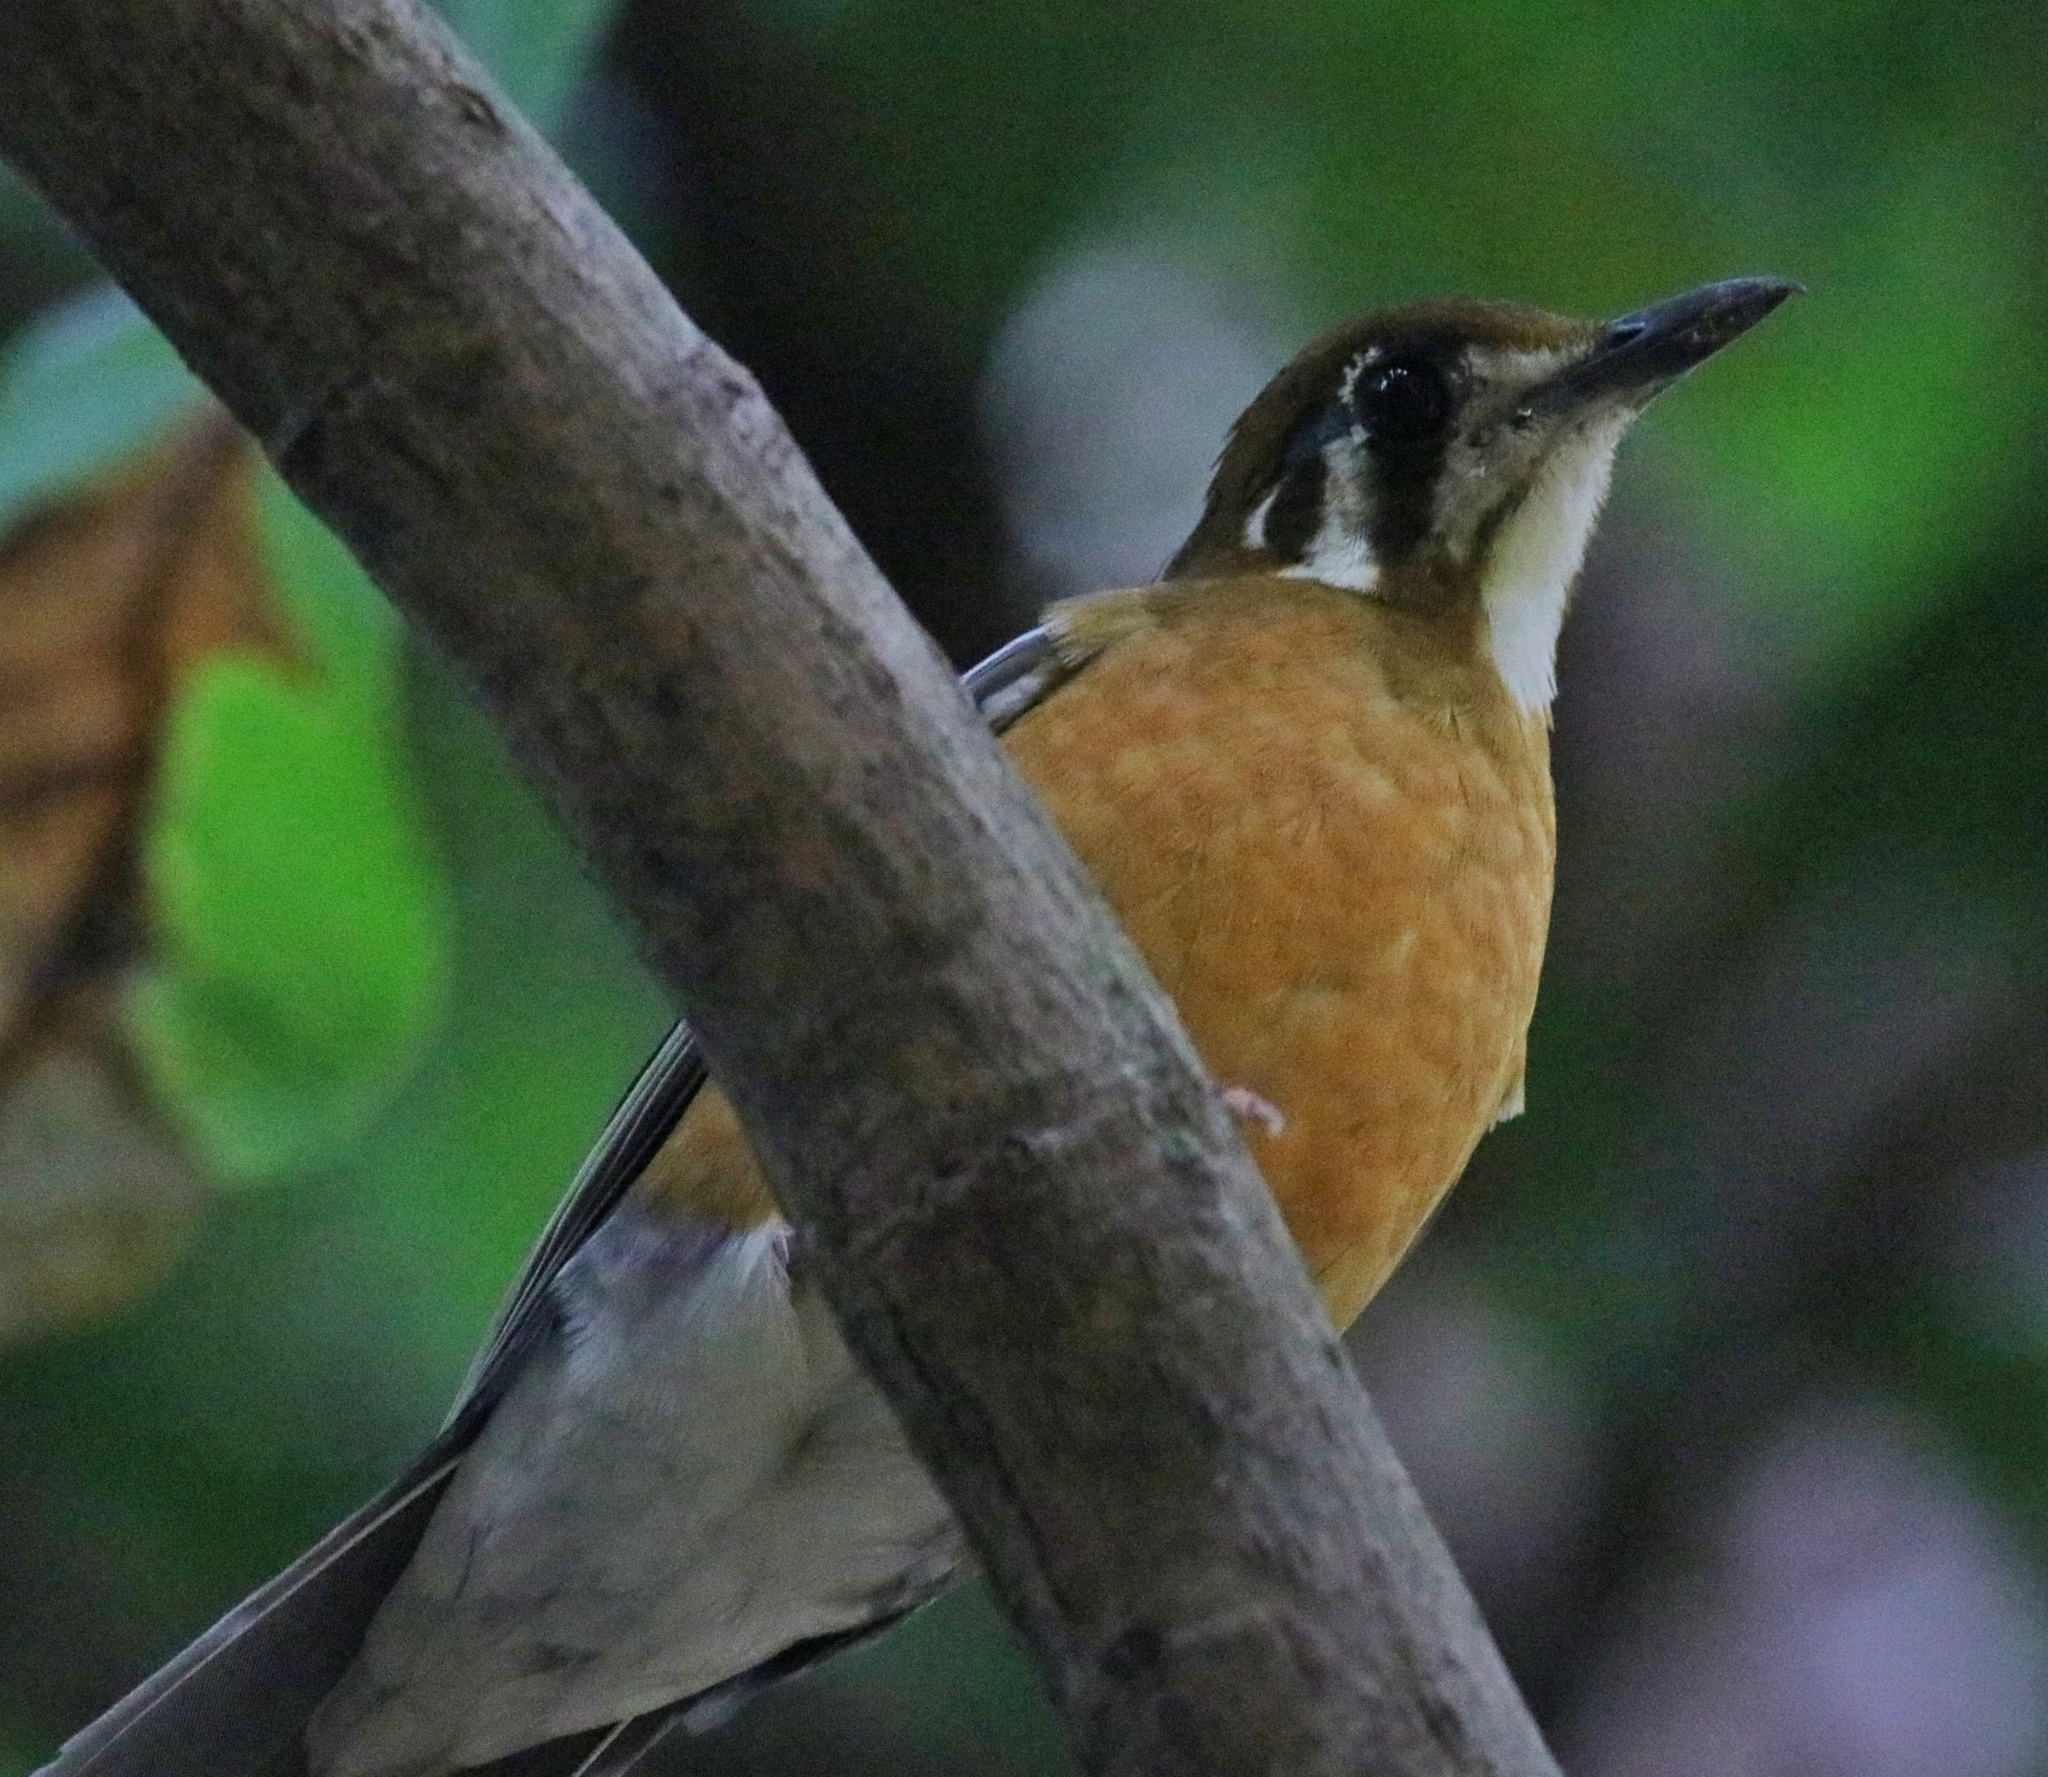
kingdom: Animalia
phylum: Chordata
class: Aves
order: Passeriformes
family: Turdidae
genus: Geokichla
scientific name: Geokichla citrina
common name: Orange-headed thrush
